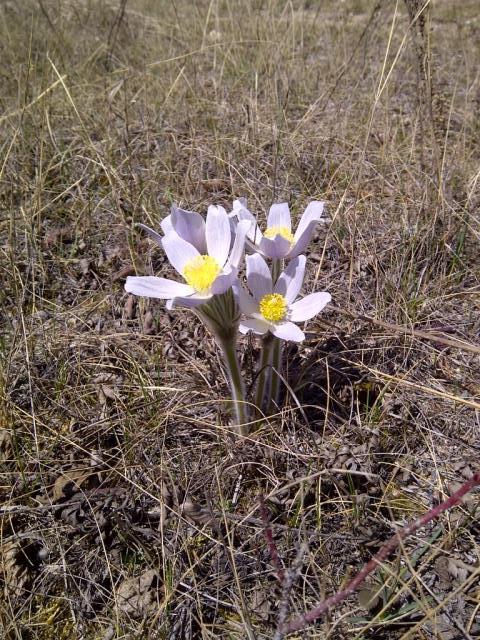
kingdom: Plantae
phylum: Tracheophyta
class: Magnoliopsida
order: Ranunculales
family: Ranunculaceae
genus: Pulsatilla
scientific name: Pulsatilla nuttalliana
